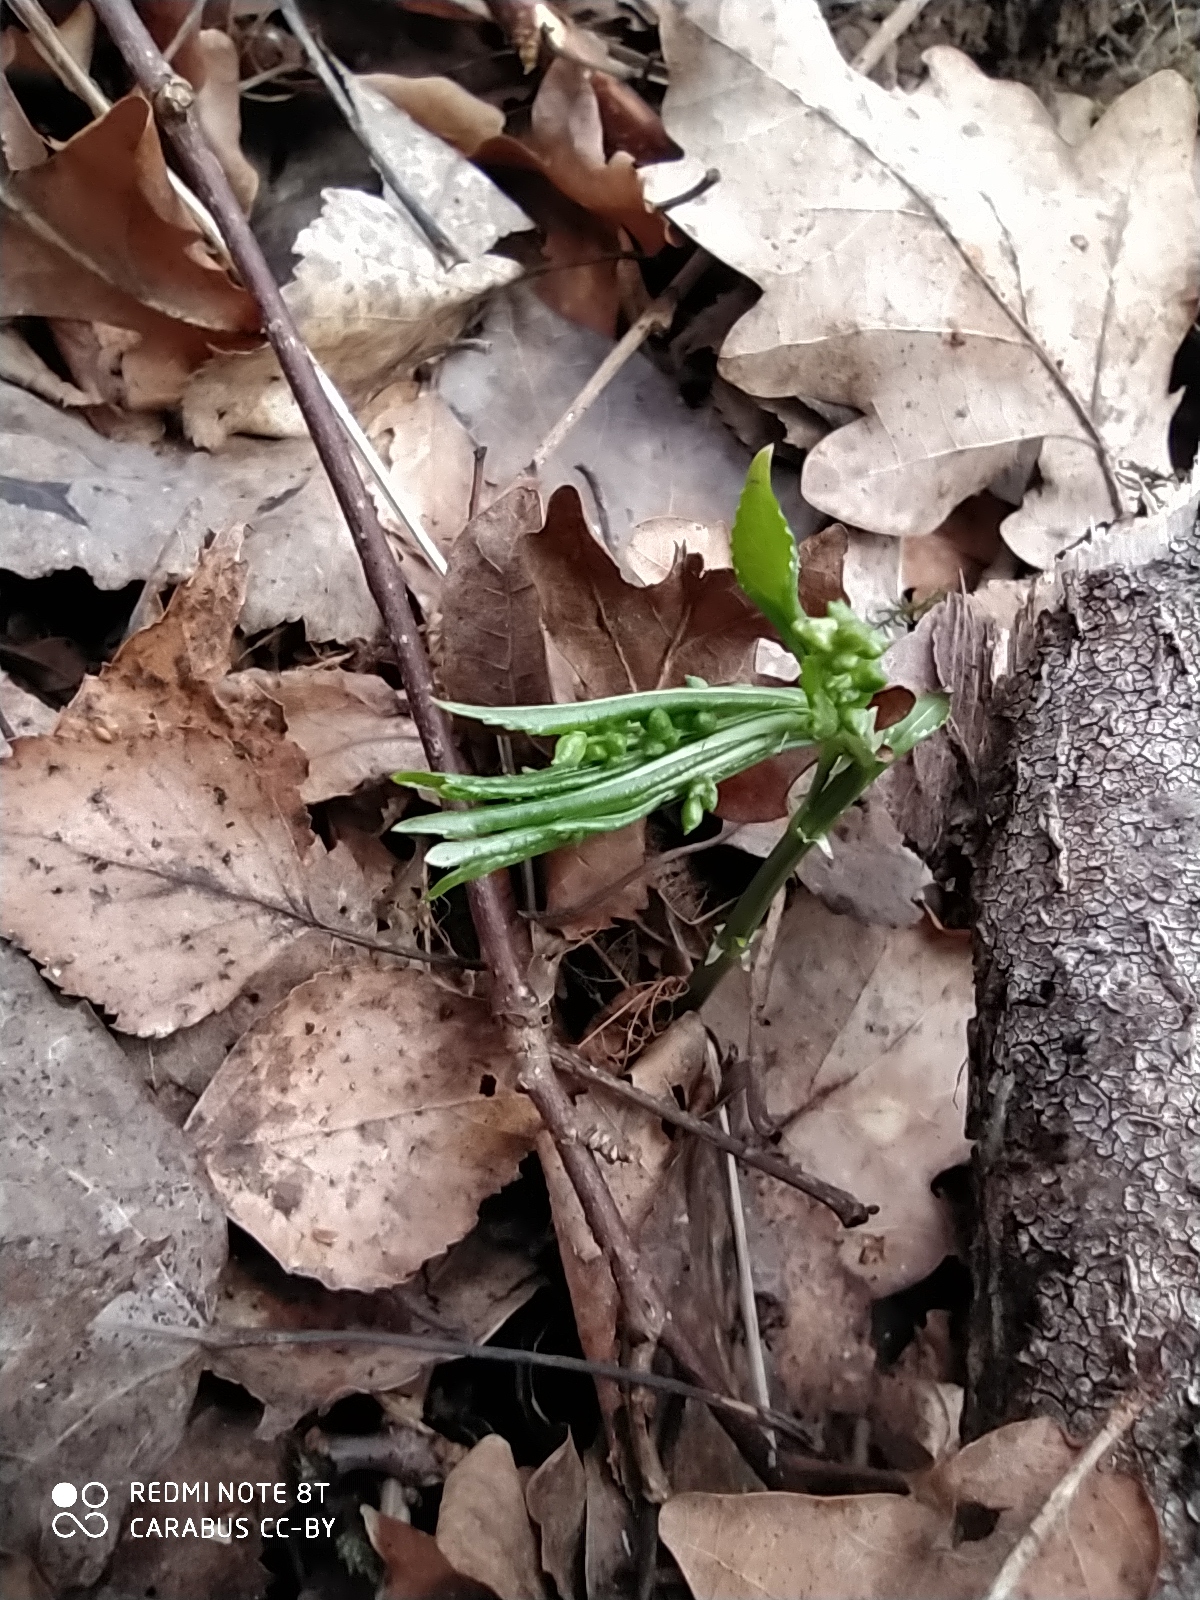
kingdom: Plantae
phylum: Tracheophyta
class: Magnoliopsida
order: Malpighiales
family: Euphorbiaceae
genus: Mercurialis
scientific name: Mercurialis perennis
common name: Dog mercury
